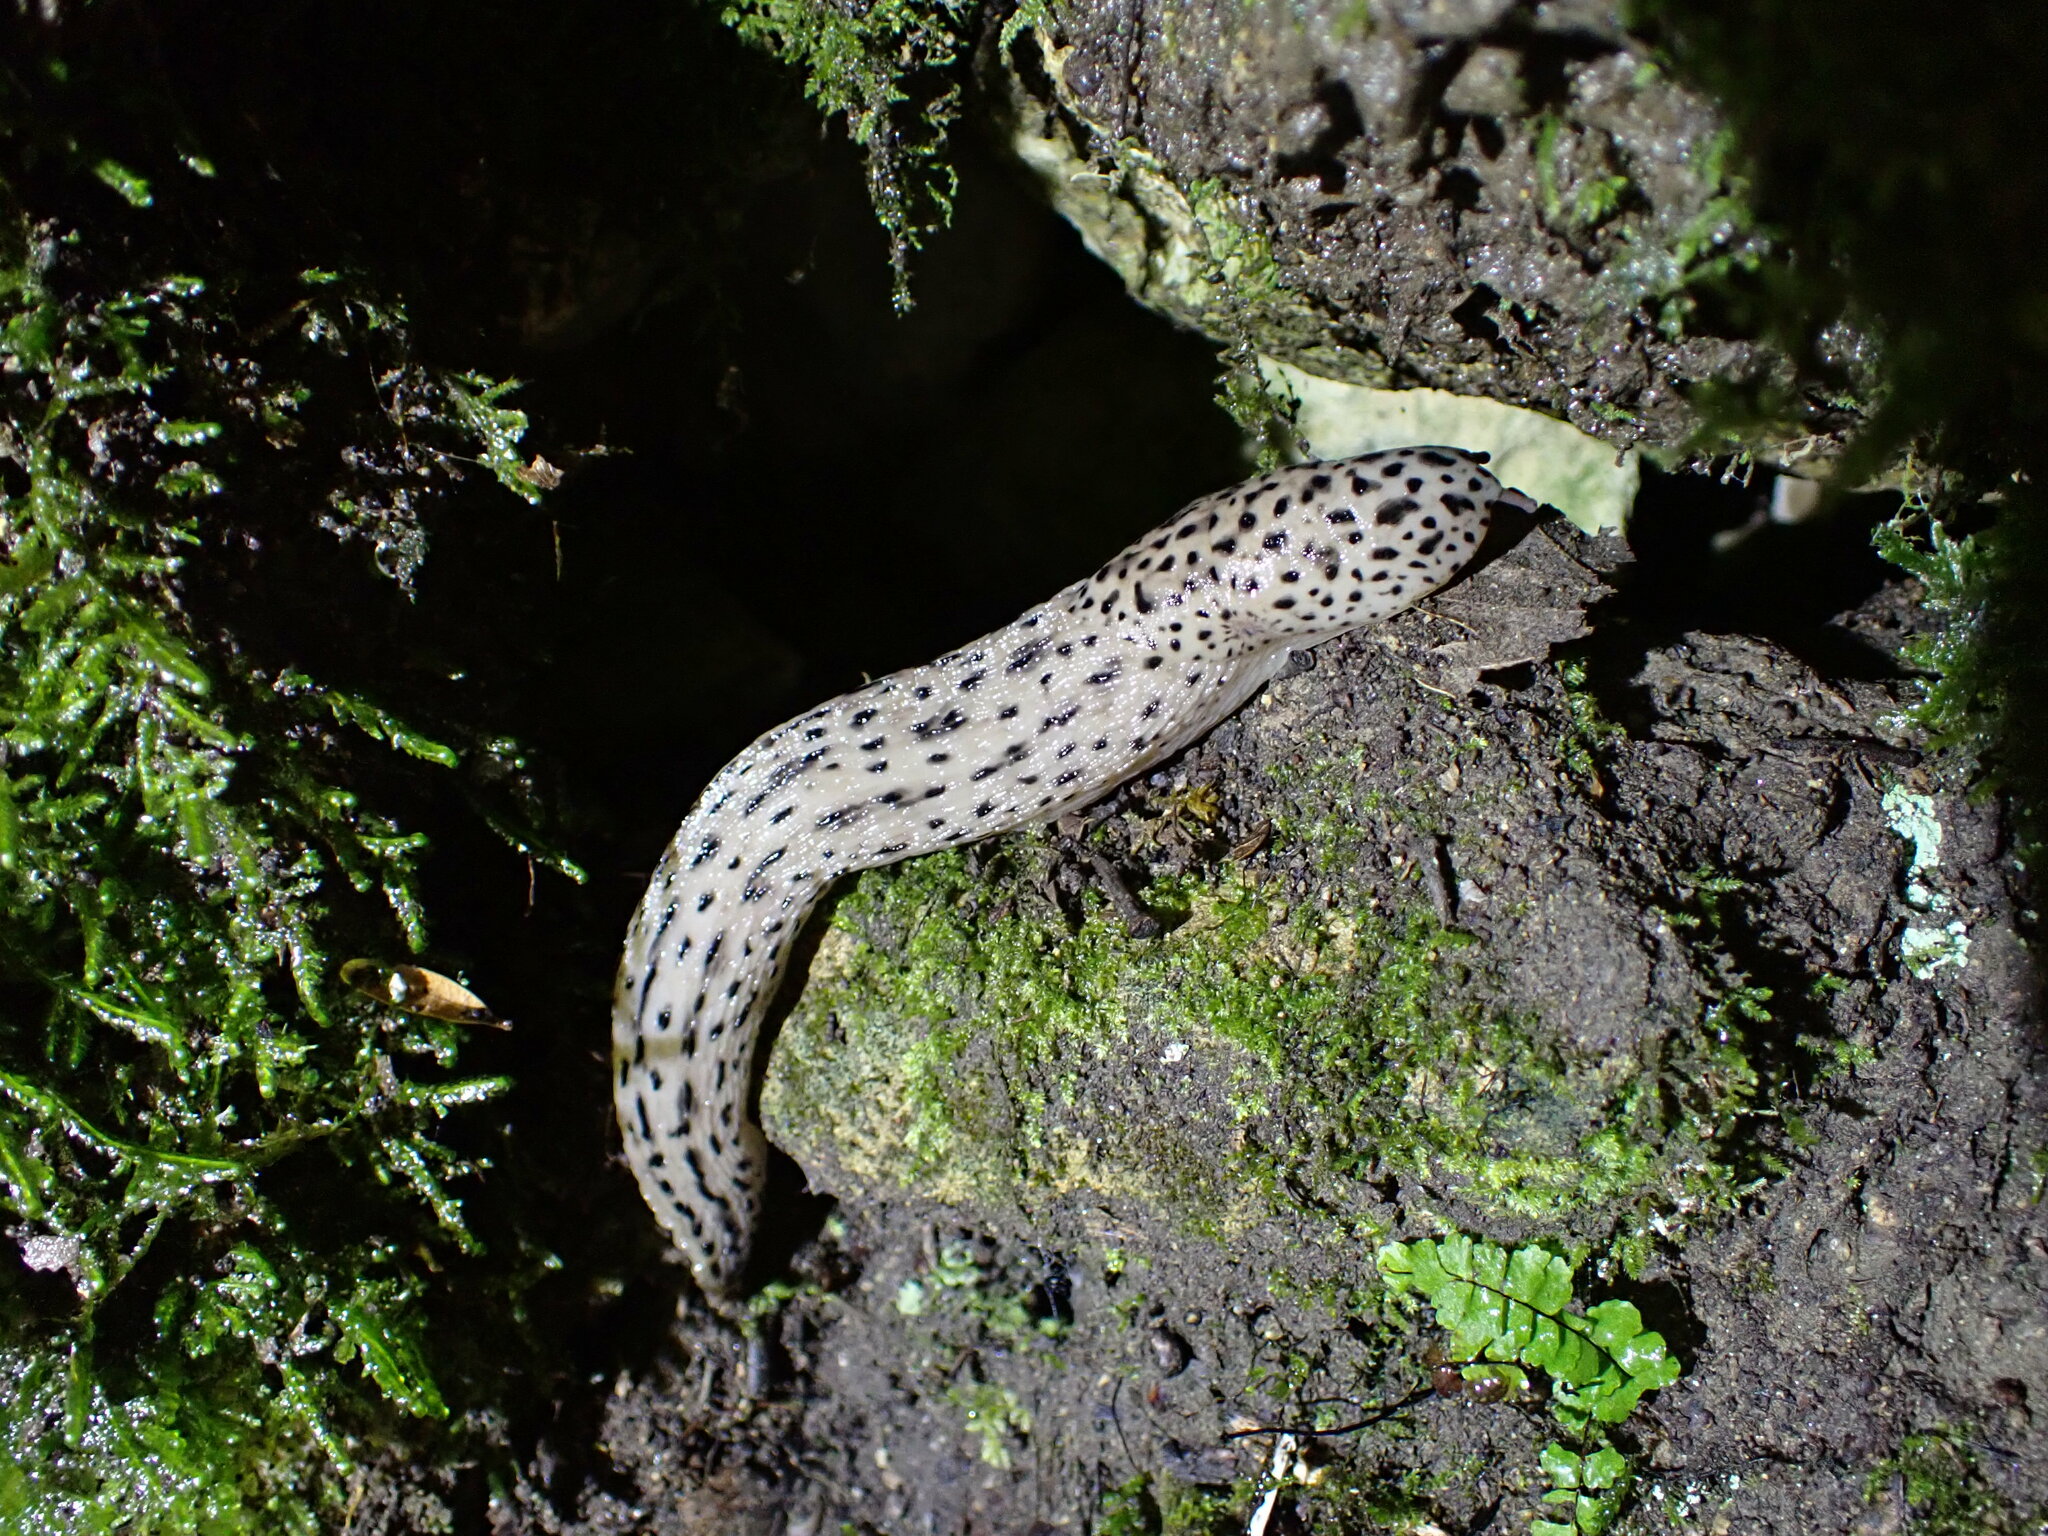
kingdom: Animalia
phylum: Mollusca
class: Gastropoda
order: Stylommatophora
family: Limacidae
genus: Limax
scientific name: Limax maximus
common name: Great grey slug
